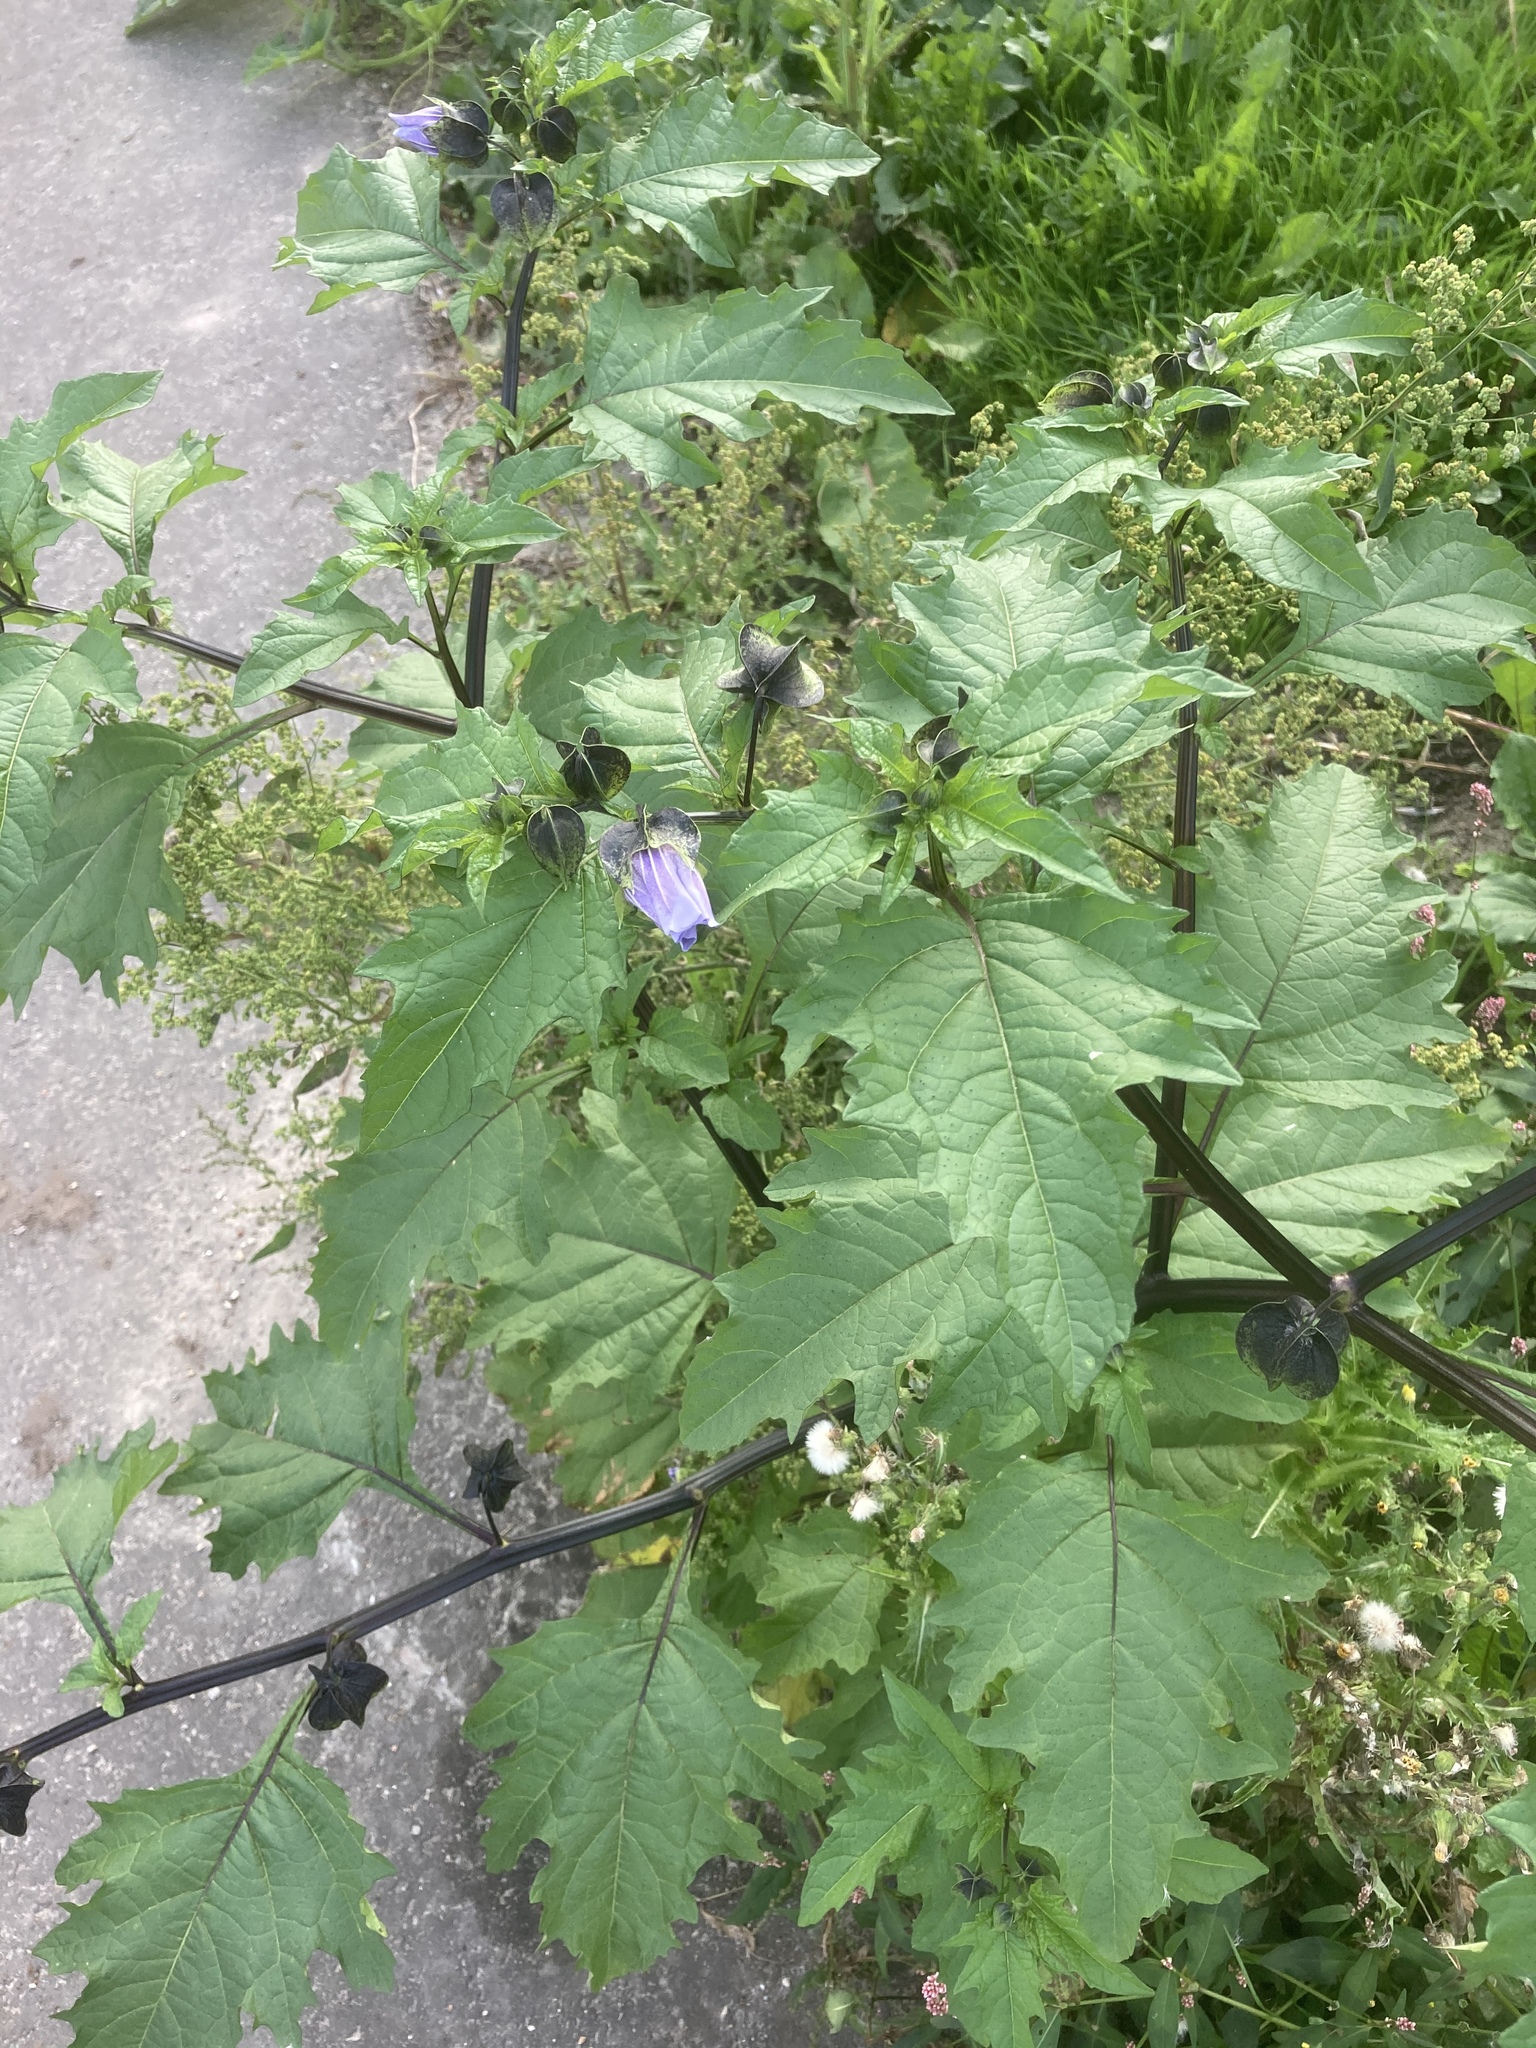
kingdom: Plantae
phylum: Tracheophyta
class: Magnoliopsida
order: Solanales
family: Solanaceae
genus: Nicandra
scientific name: Nicandra physalodes
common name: Apple-of-peru
